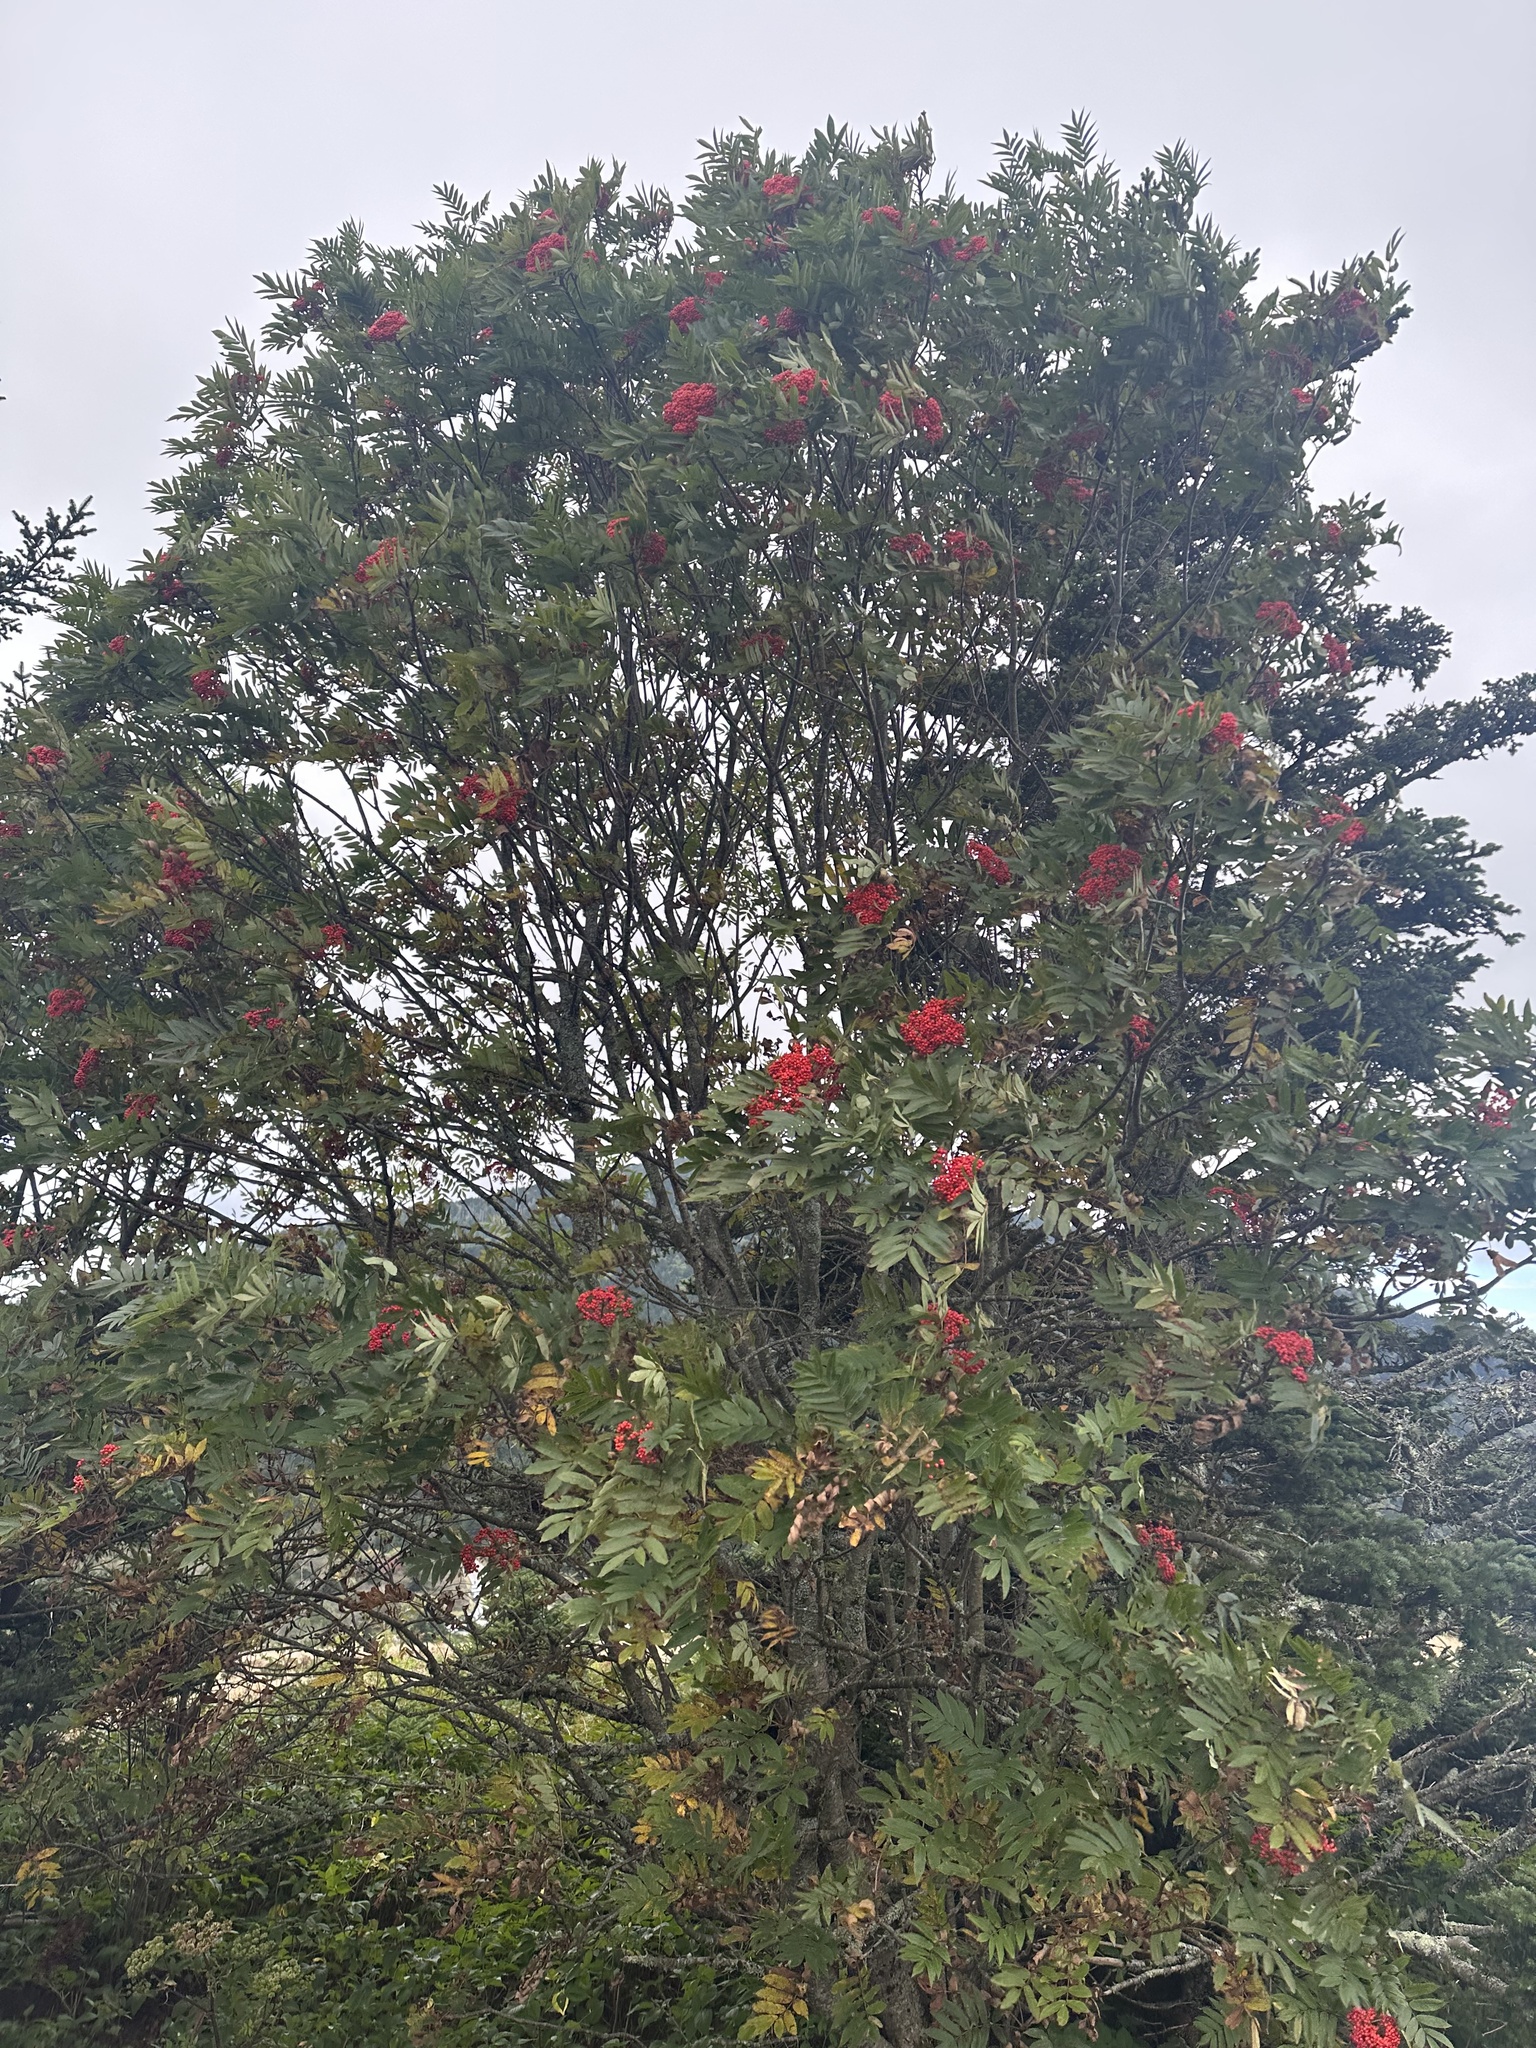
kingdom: Plantae
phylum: Tracheophyta
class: Magnoliopsida
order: Rosales
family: Rosaceae
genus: Sorbus
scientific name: Sorbus americana
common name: American mountain-ash
